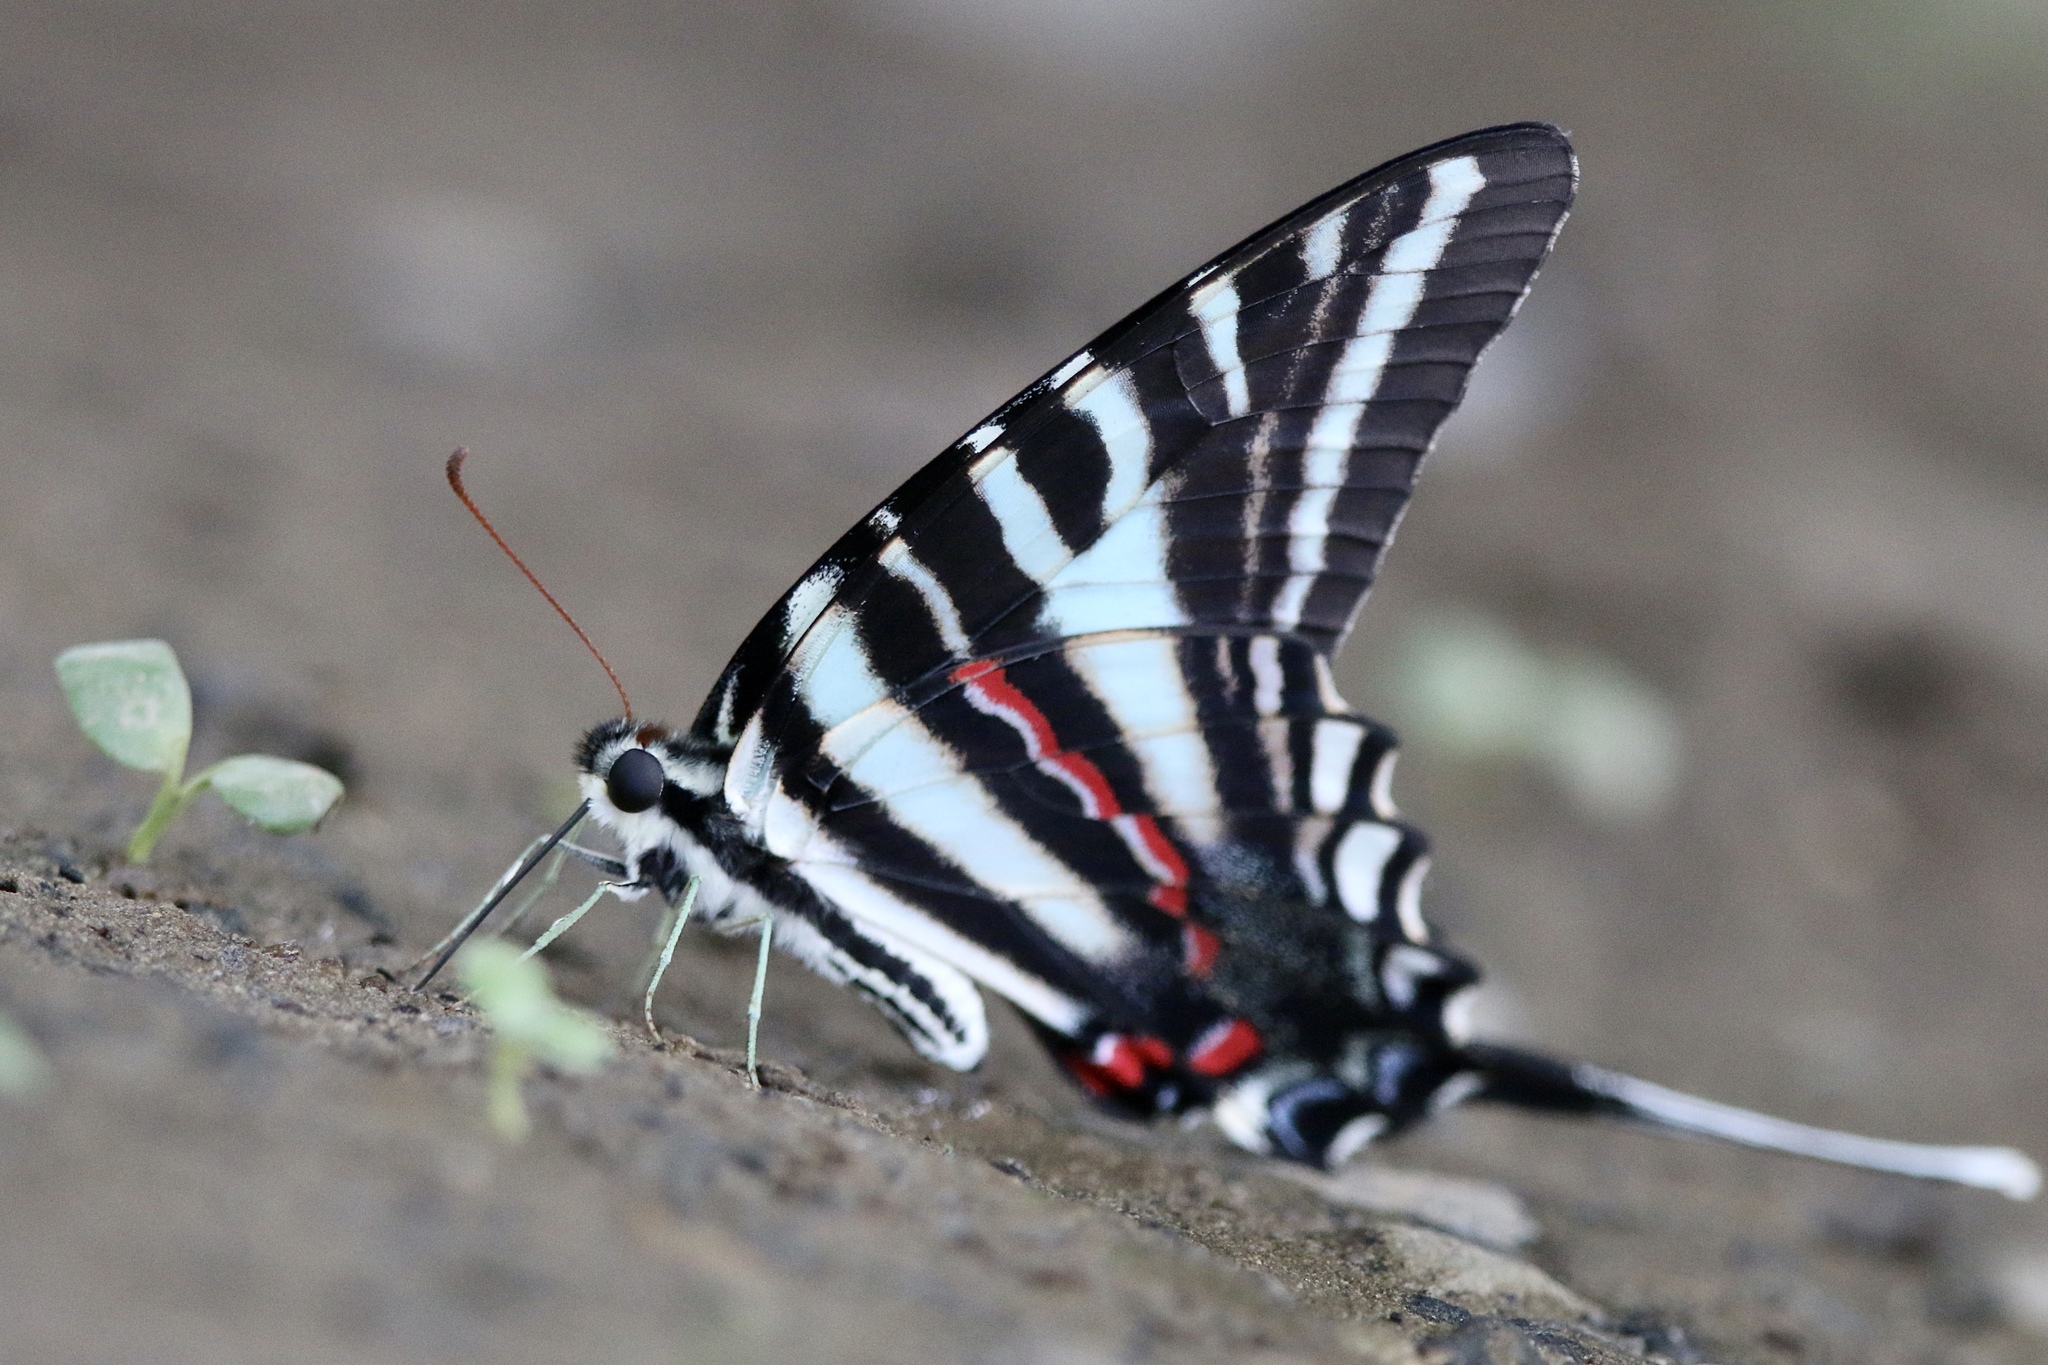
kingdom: Animalia
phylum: Arthropoda
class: Insecta
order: Lepidoptera
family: Papilionidae
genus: Protographium
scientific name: Protographium marcellus
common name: Zebra swallowtail
